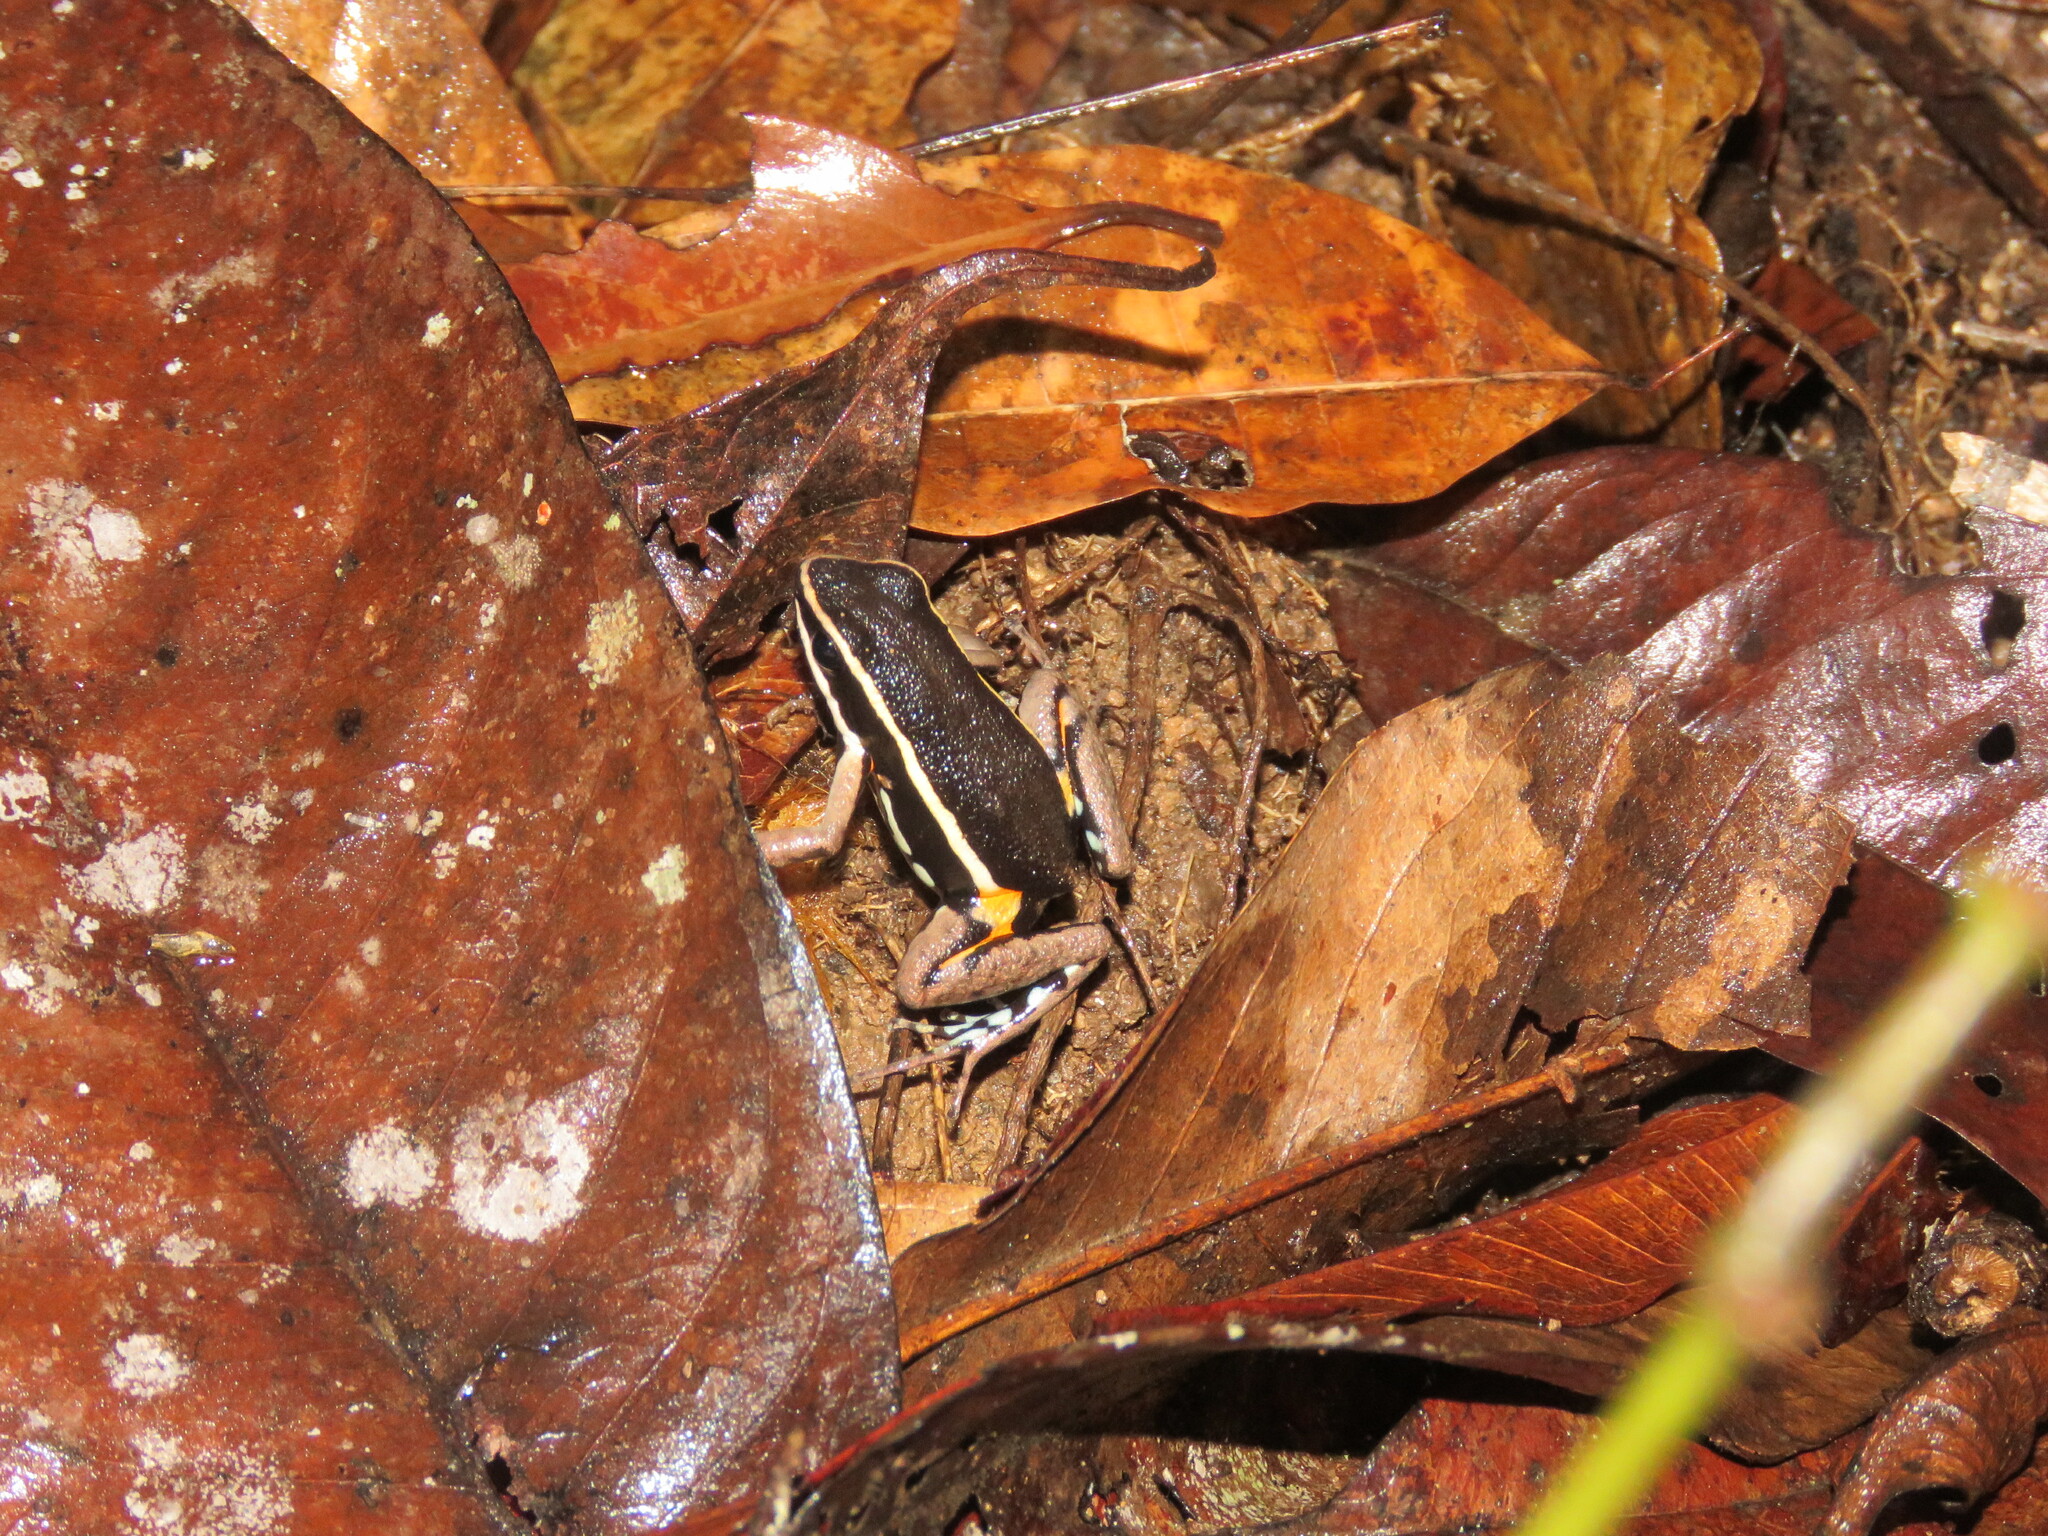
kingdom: Animalia
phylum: Chordata
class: Amphibia
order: Anura
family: Dendrobatidae
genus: Ameerega
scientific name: Ameerega picta
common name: Spot-legged poison frog
